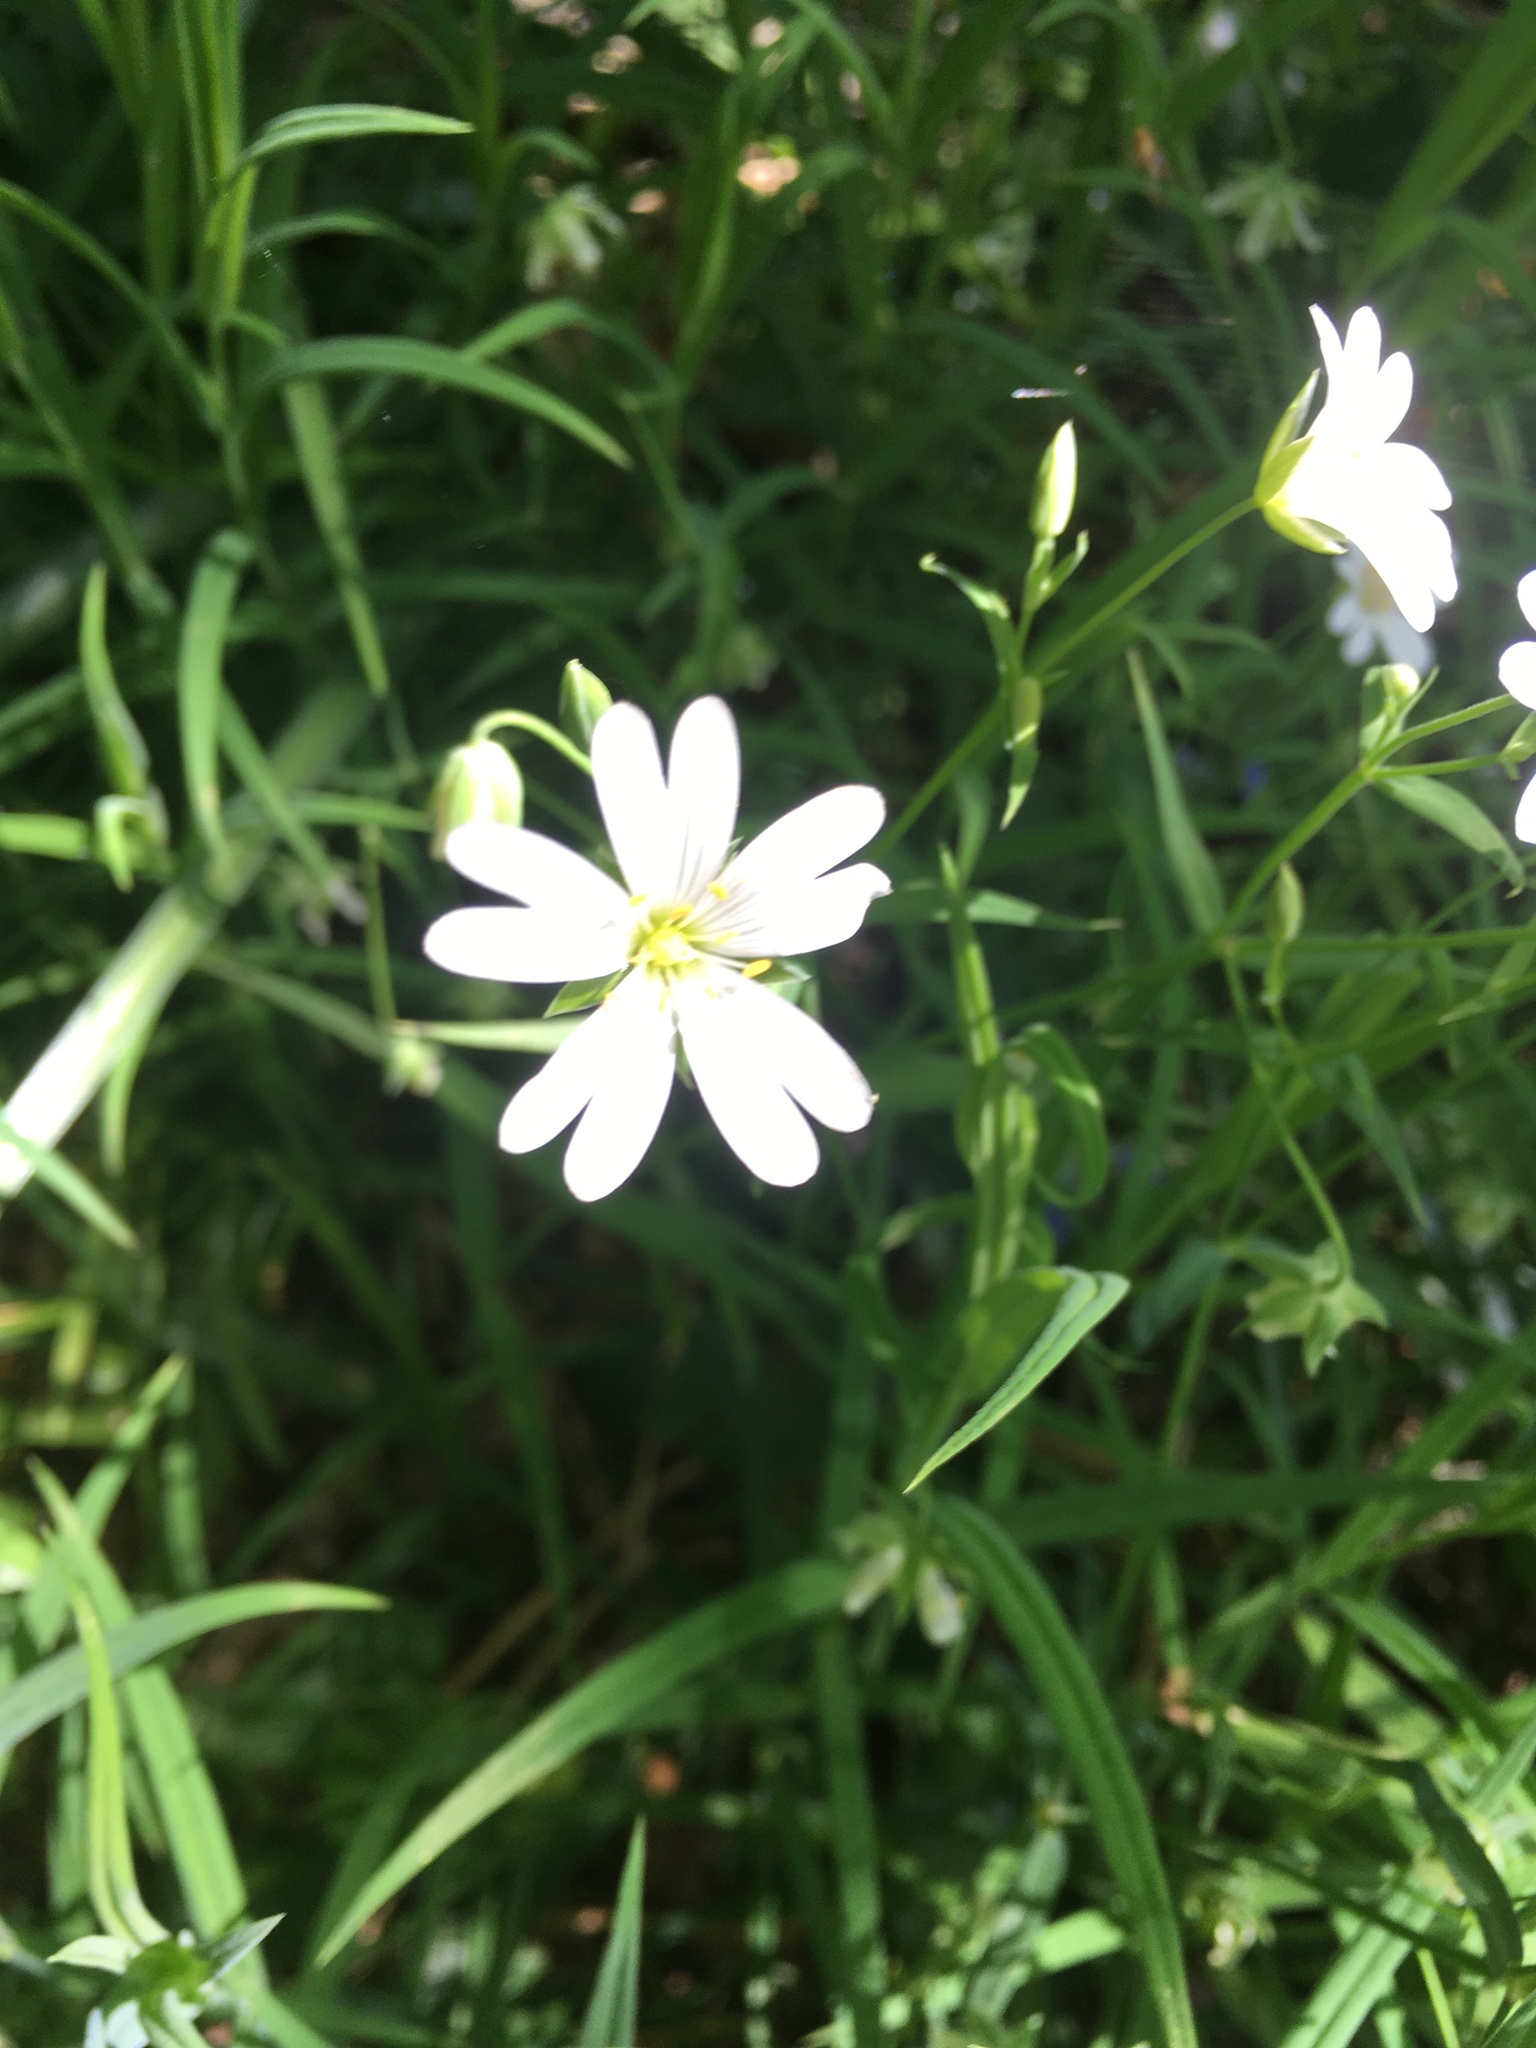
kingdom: Plantae
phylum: Tracheophyta
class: Magnoliopsida
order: Caryophyllales
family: Caryophyllaceae
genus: Rabelera
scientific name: Rabelera holostea
